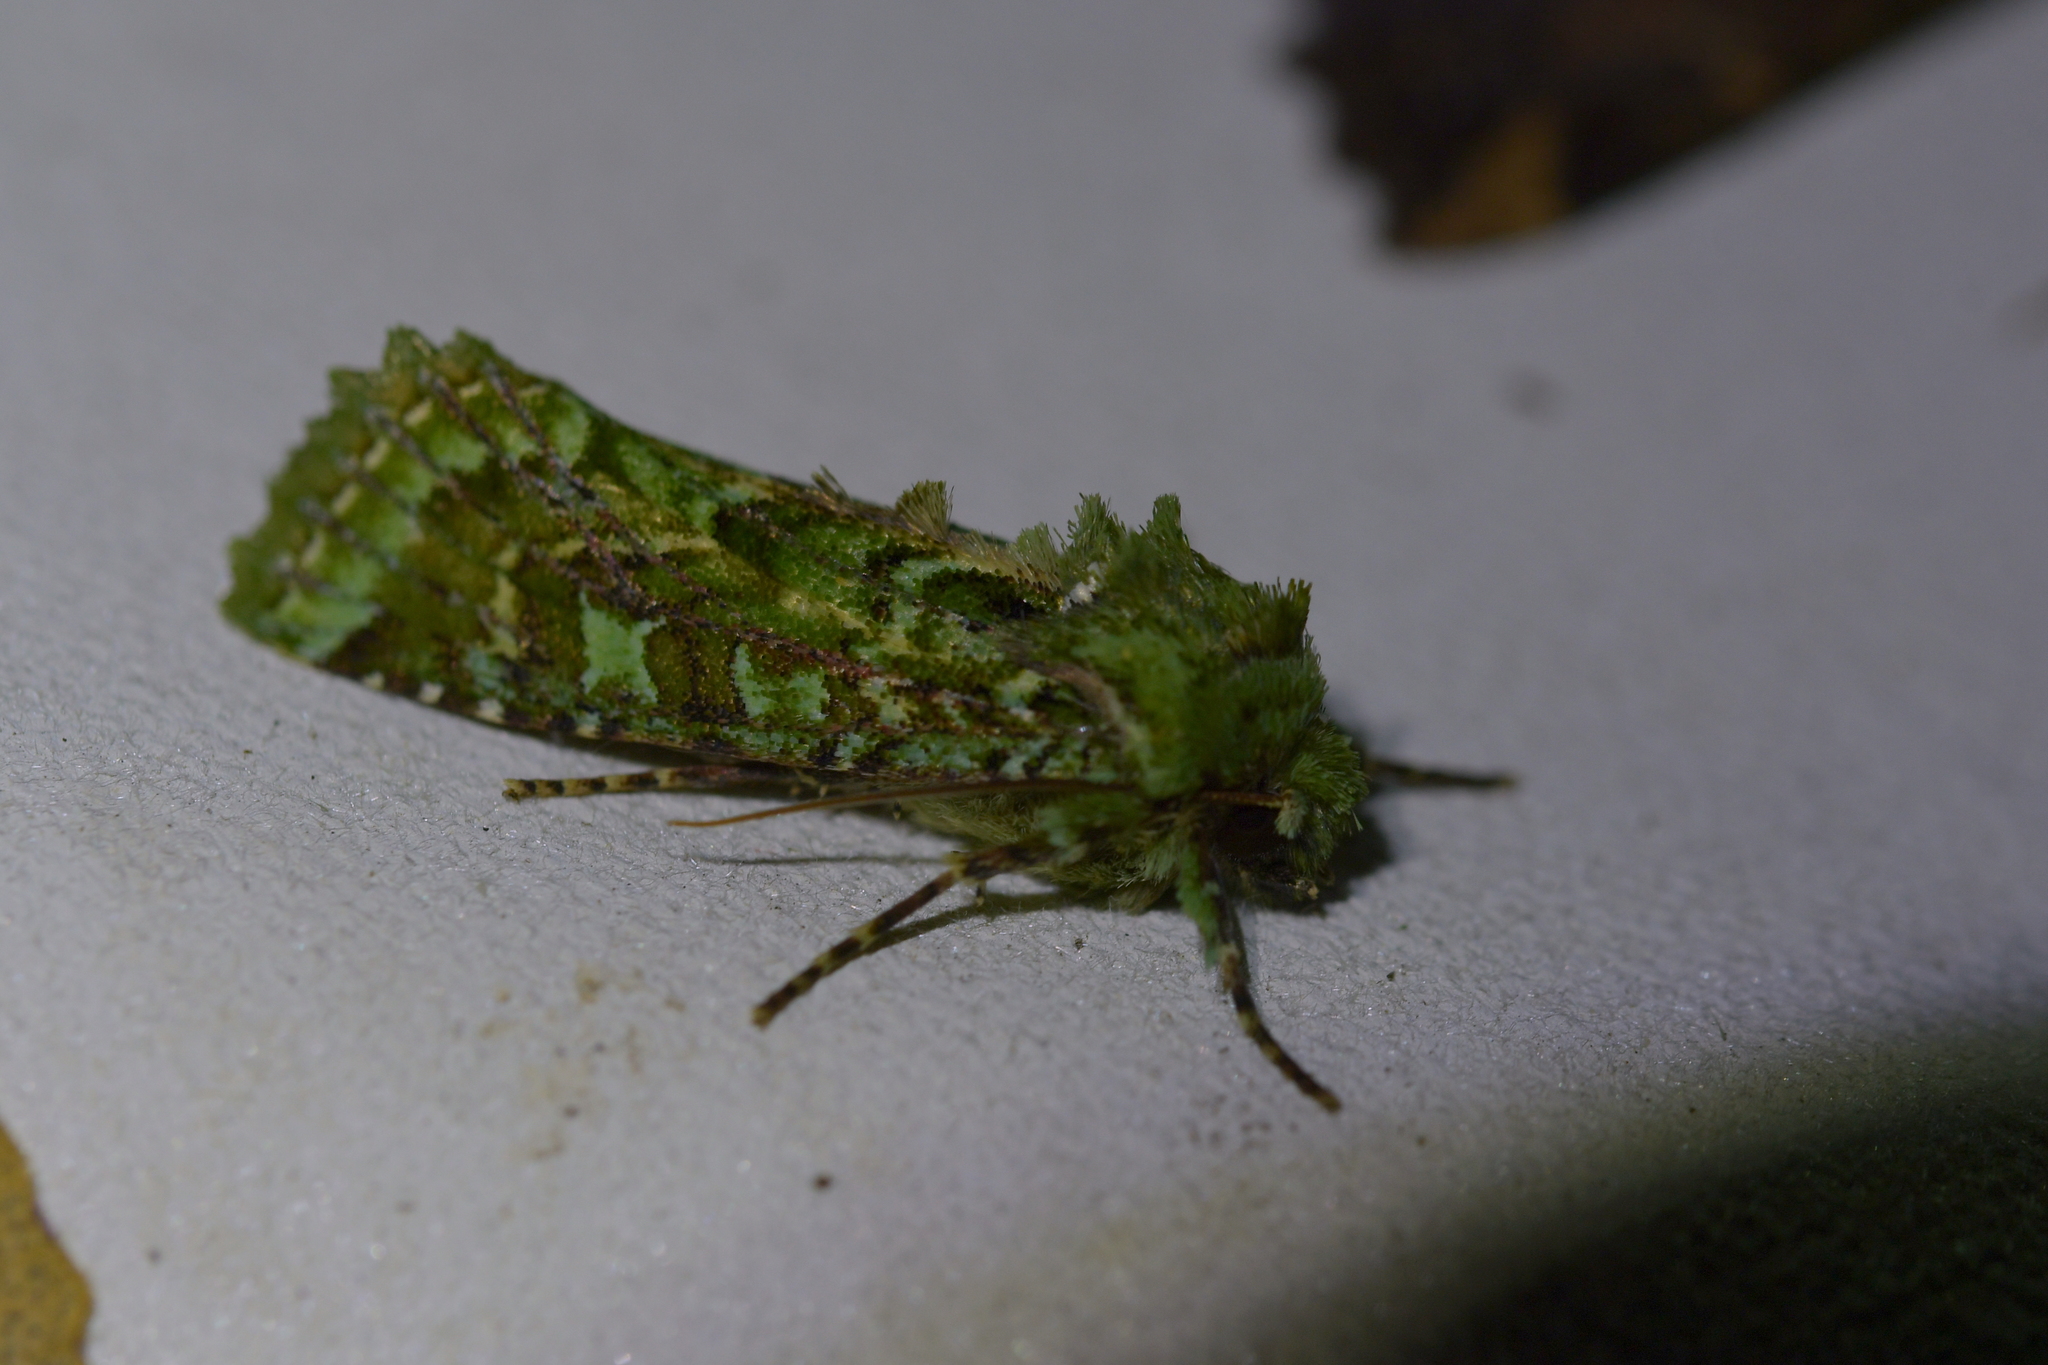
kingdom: Animalia
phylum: Arthropoda
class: Insecta
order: Lepidoptera
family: Noctuidae
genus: Feredayia
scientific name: Feredayia grammosa
